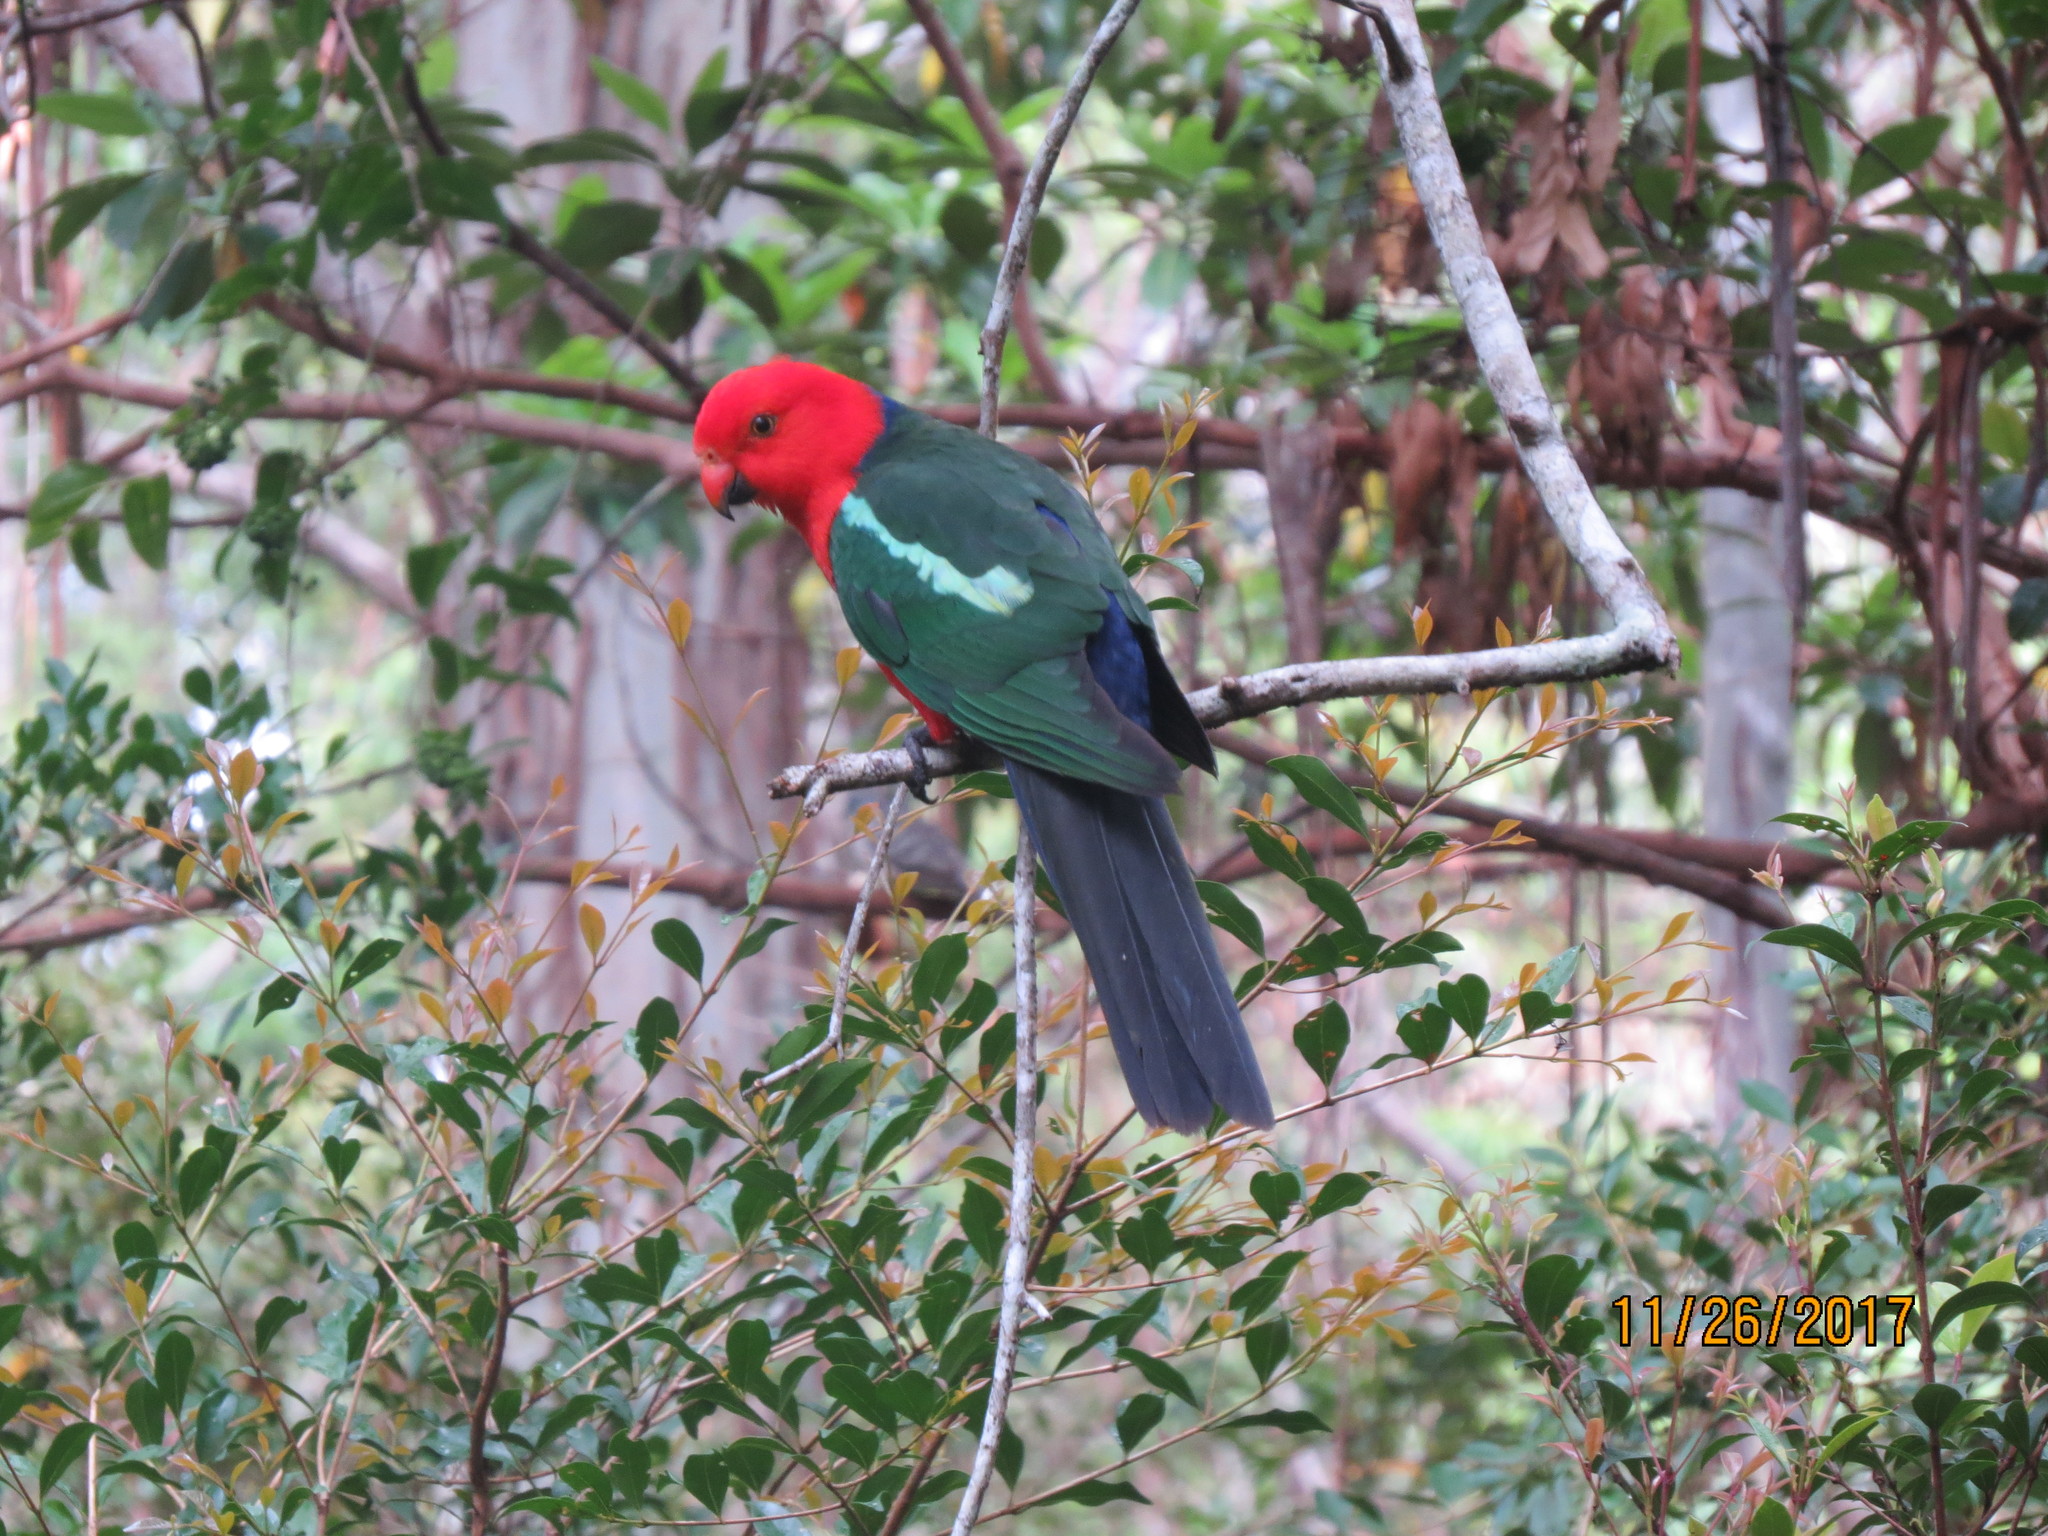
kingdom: Animalia
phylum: Chordata
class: Aves
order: Psittaciformes
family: Psittacidae
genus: Alisterus
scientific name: Alisterus scapularis
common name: Australian king parrot
